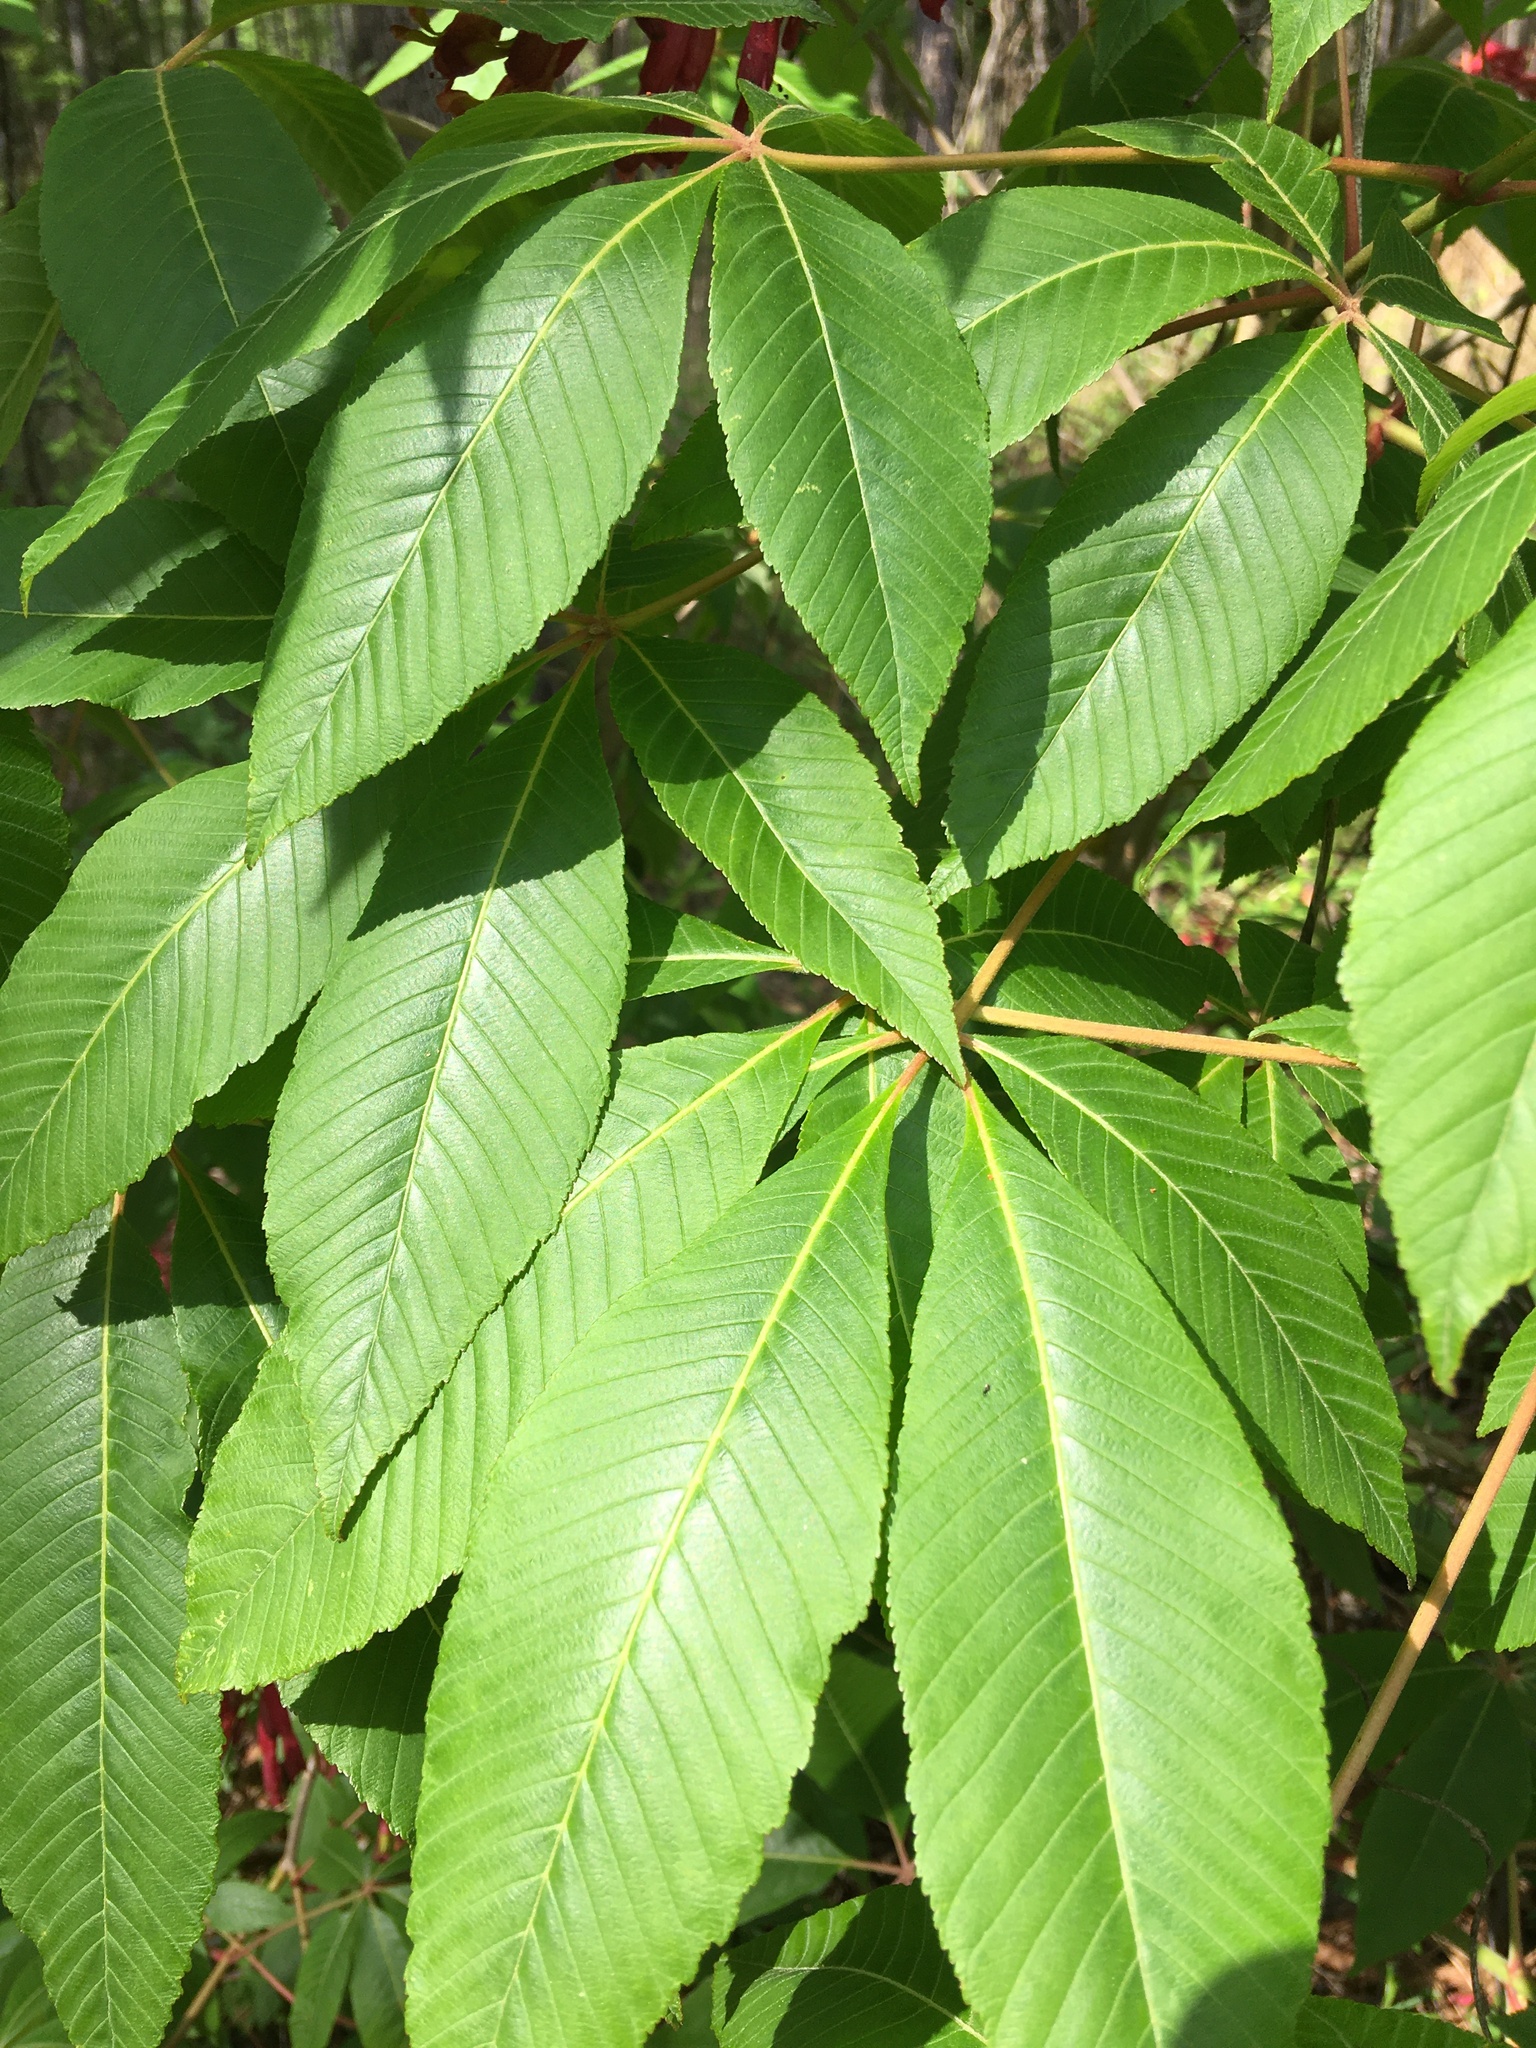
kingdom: Plantae
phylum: Tracheophyta
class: Magnoliopsida
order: Sapindales
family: Sapindaceae
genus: Aesculus
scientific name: Aesculus pavia
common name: Red buckeye
